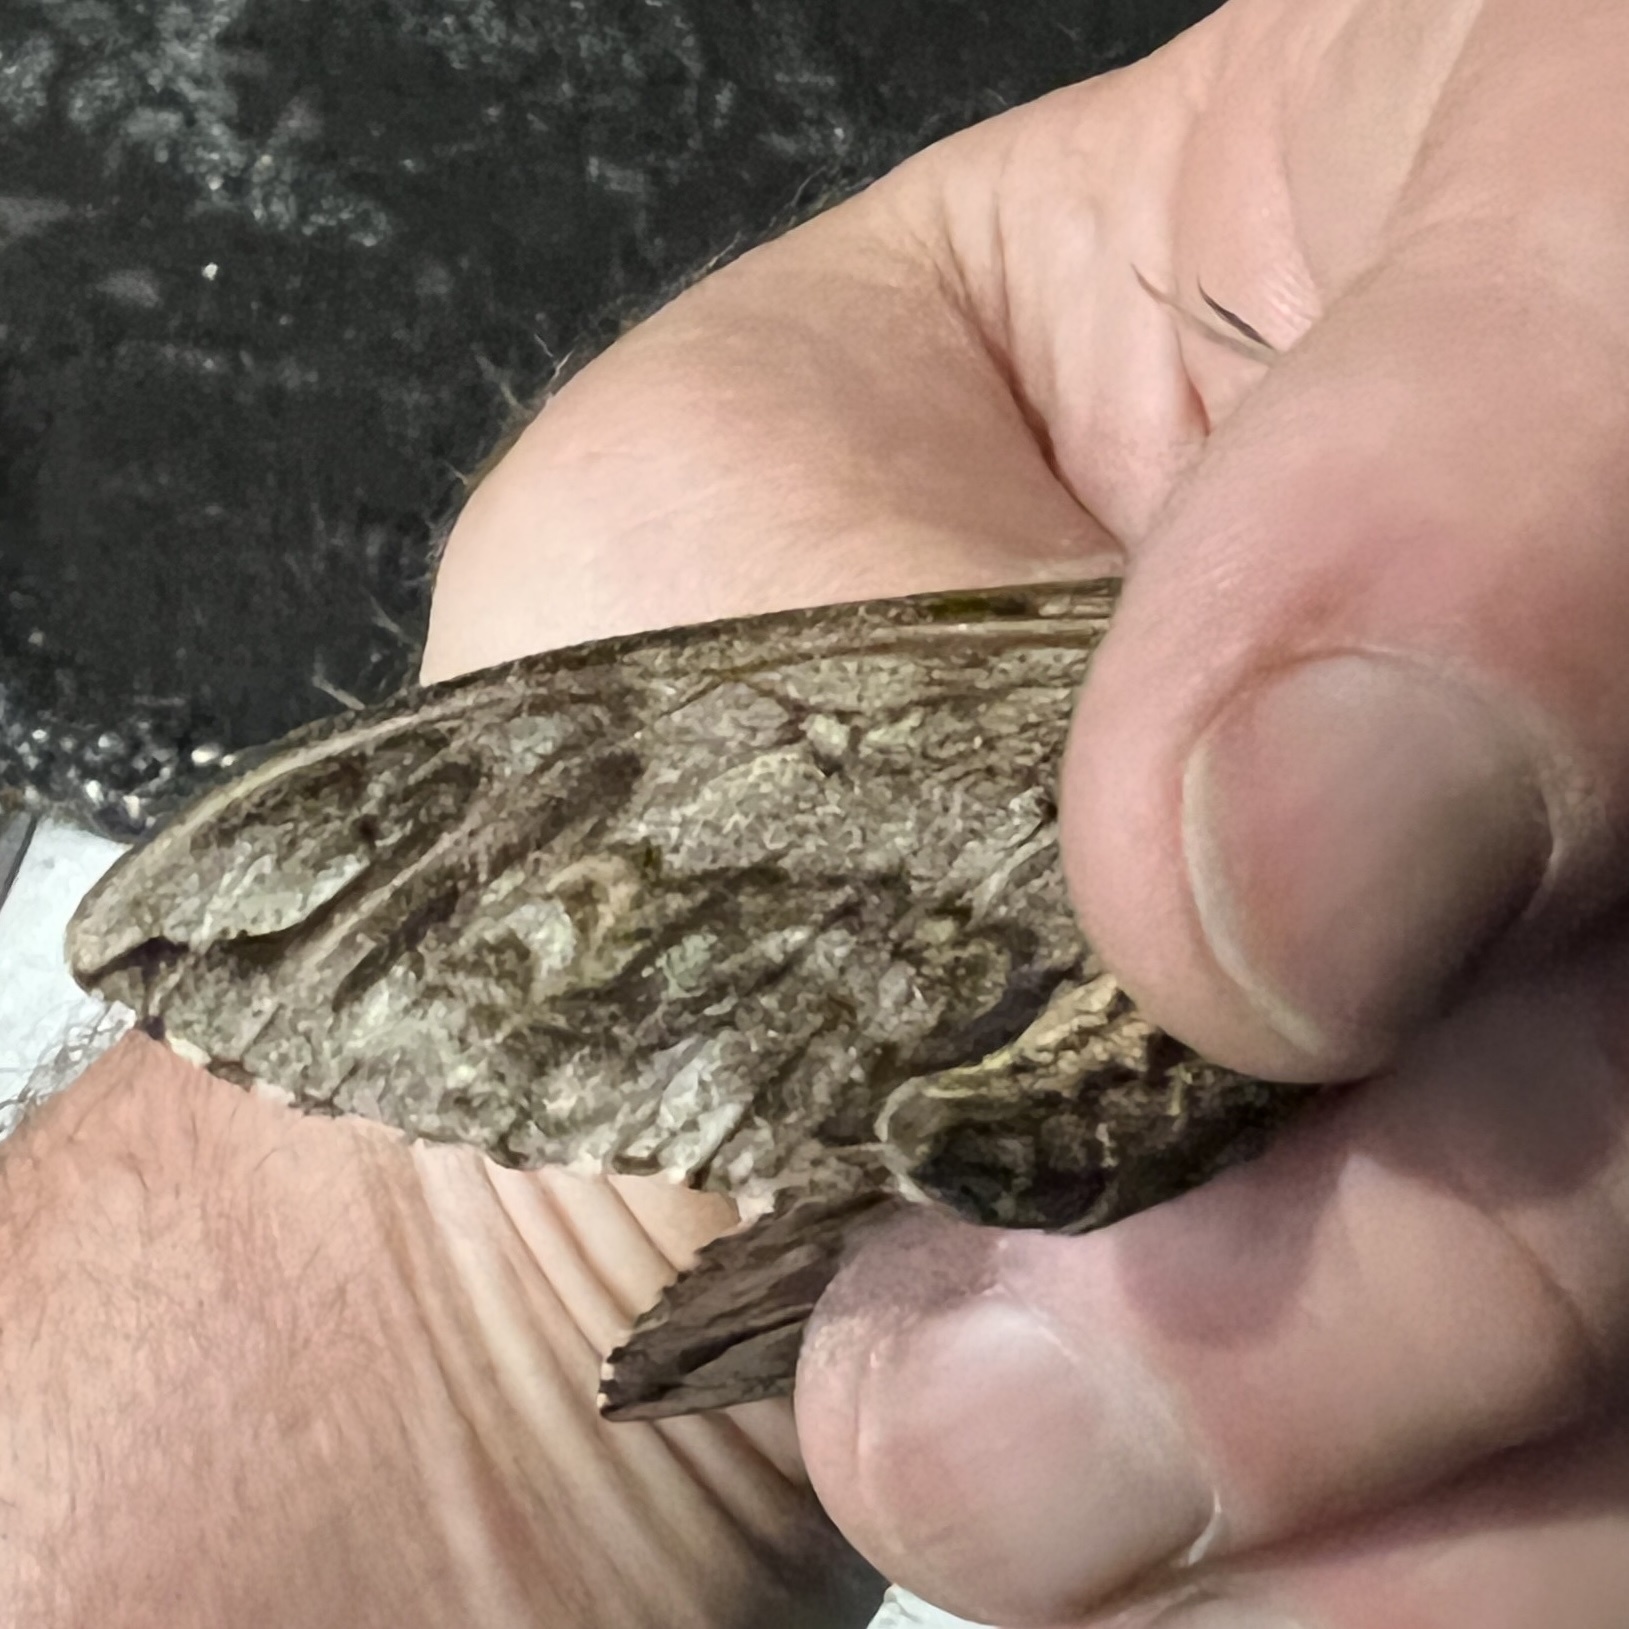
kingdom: Animalia
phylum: Arthropoda
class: Insecta
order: Lepidoptera
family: Sphingidae
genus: Ceratomia
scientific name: Ceratomia undulosa
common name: Waved sphinx
